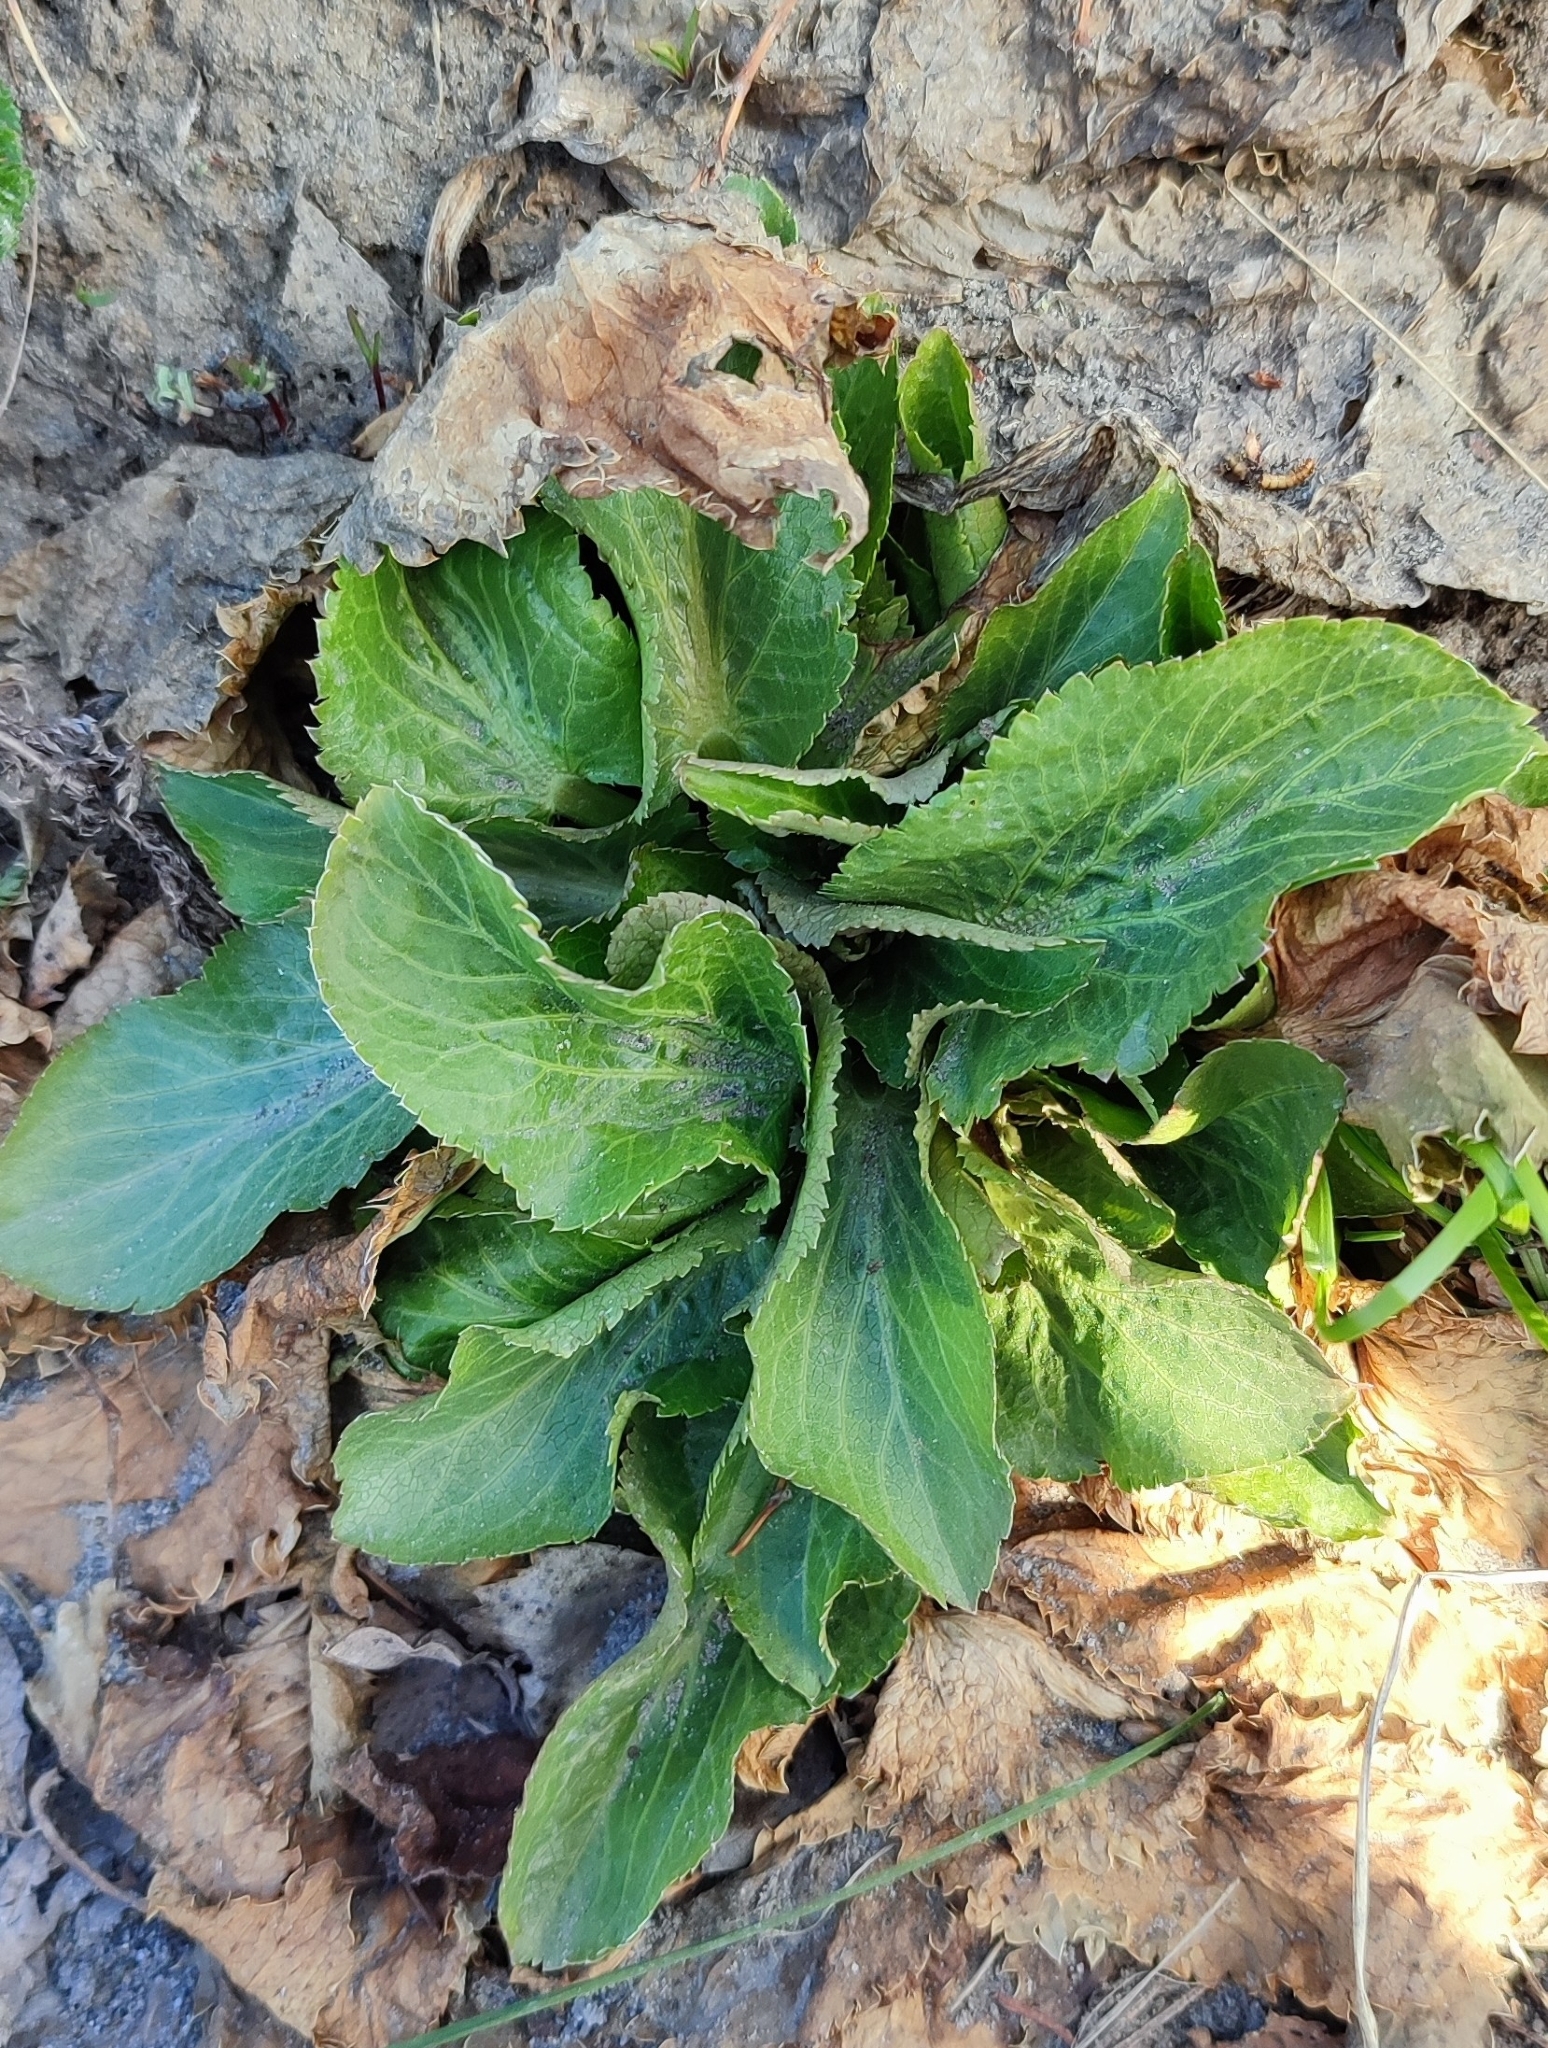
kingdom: Plantae
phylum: Tracheophyta
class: Magnoliopsida
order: Apiales
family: Apiaceae
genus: Eryngium
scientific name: Eryngium planum
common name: Blue eryngo
